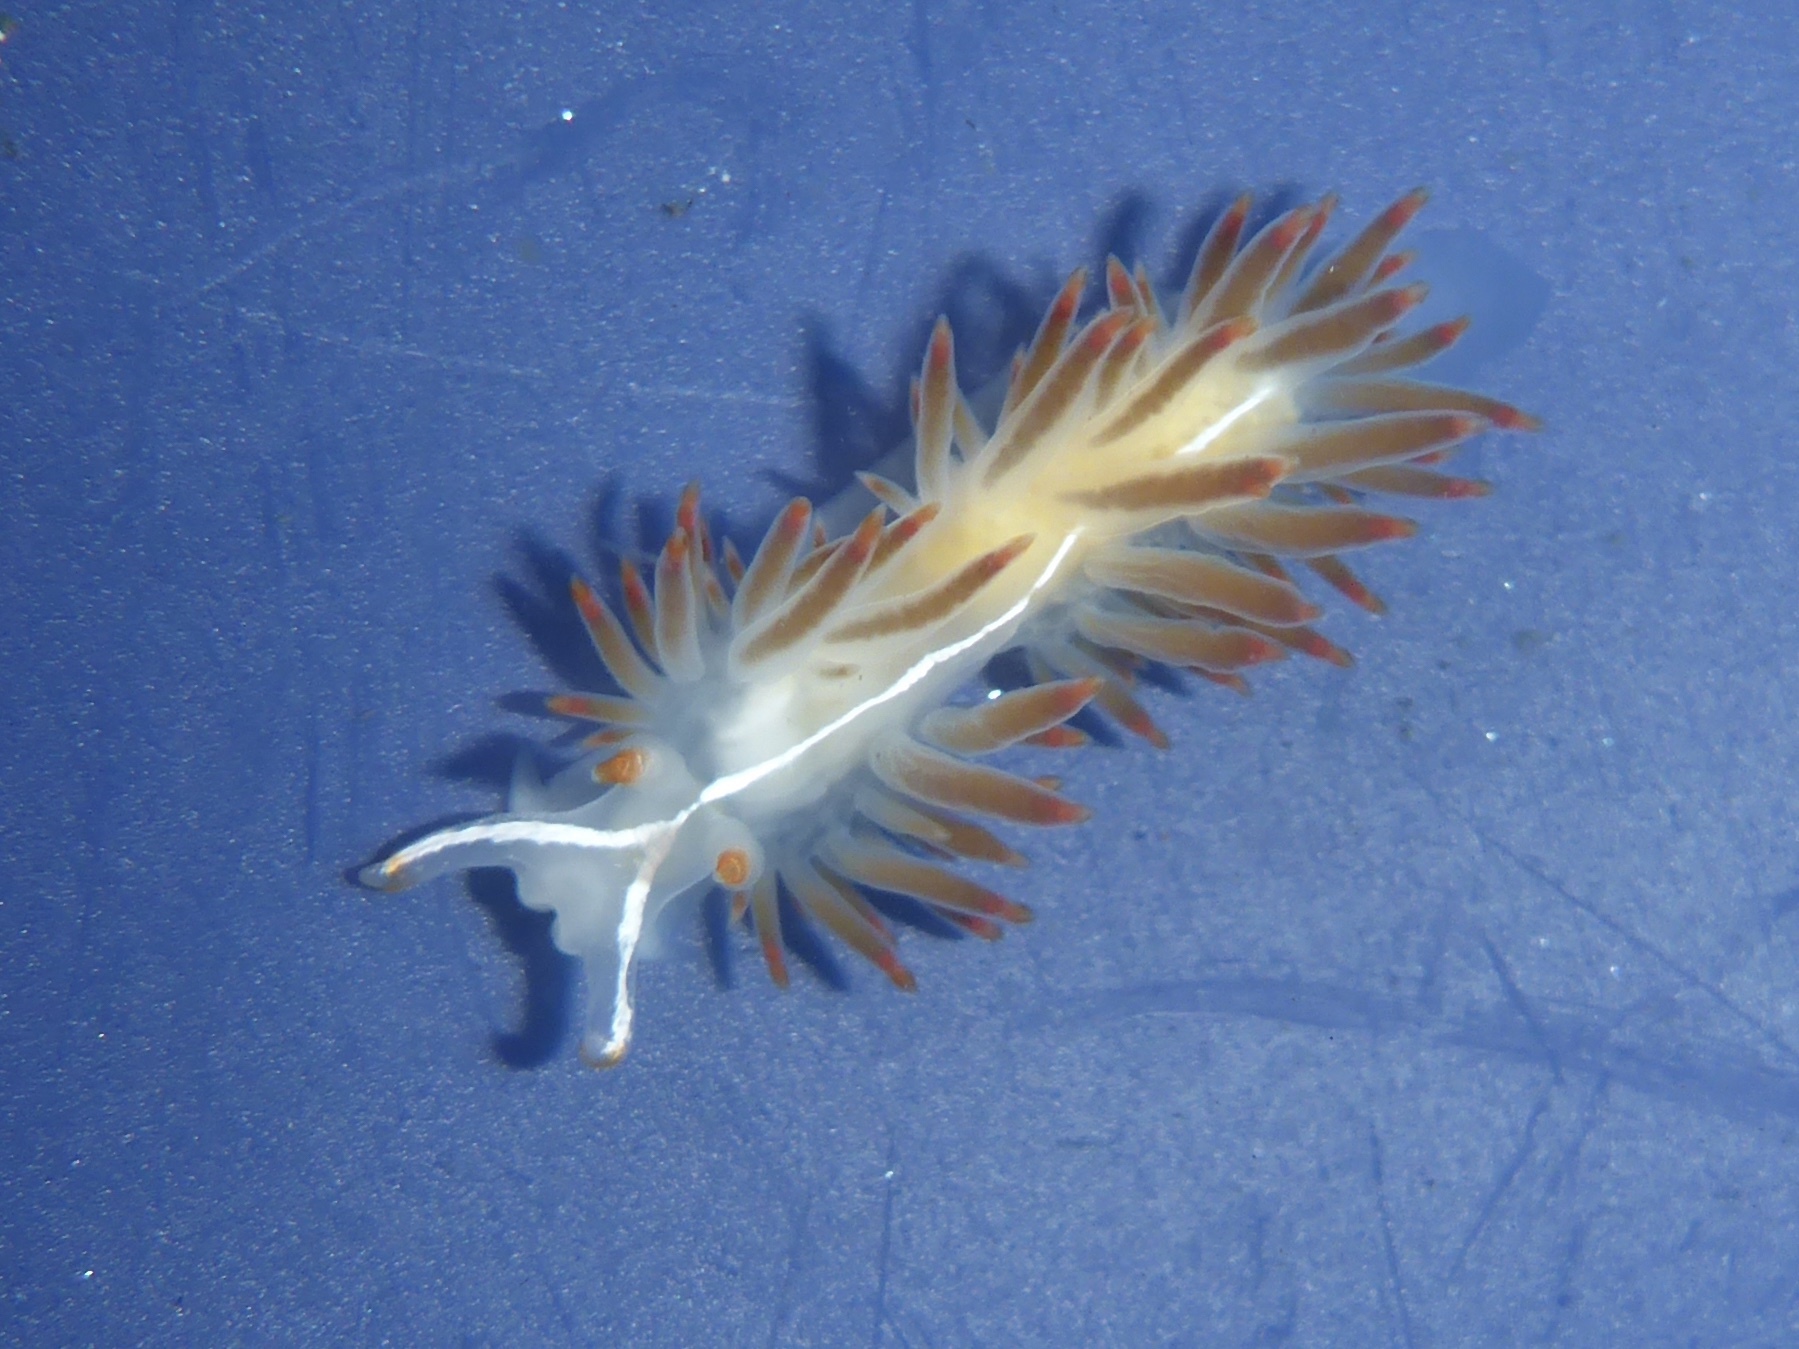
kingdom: Animalia
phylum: Mollusca
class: Gastropoda
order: Nudibranchia
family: Coryphellidae
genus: Coryphella
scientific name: Coryphella trilineata
